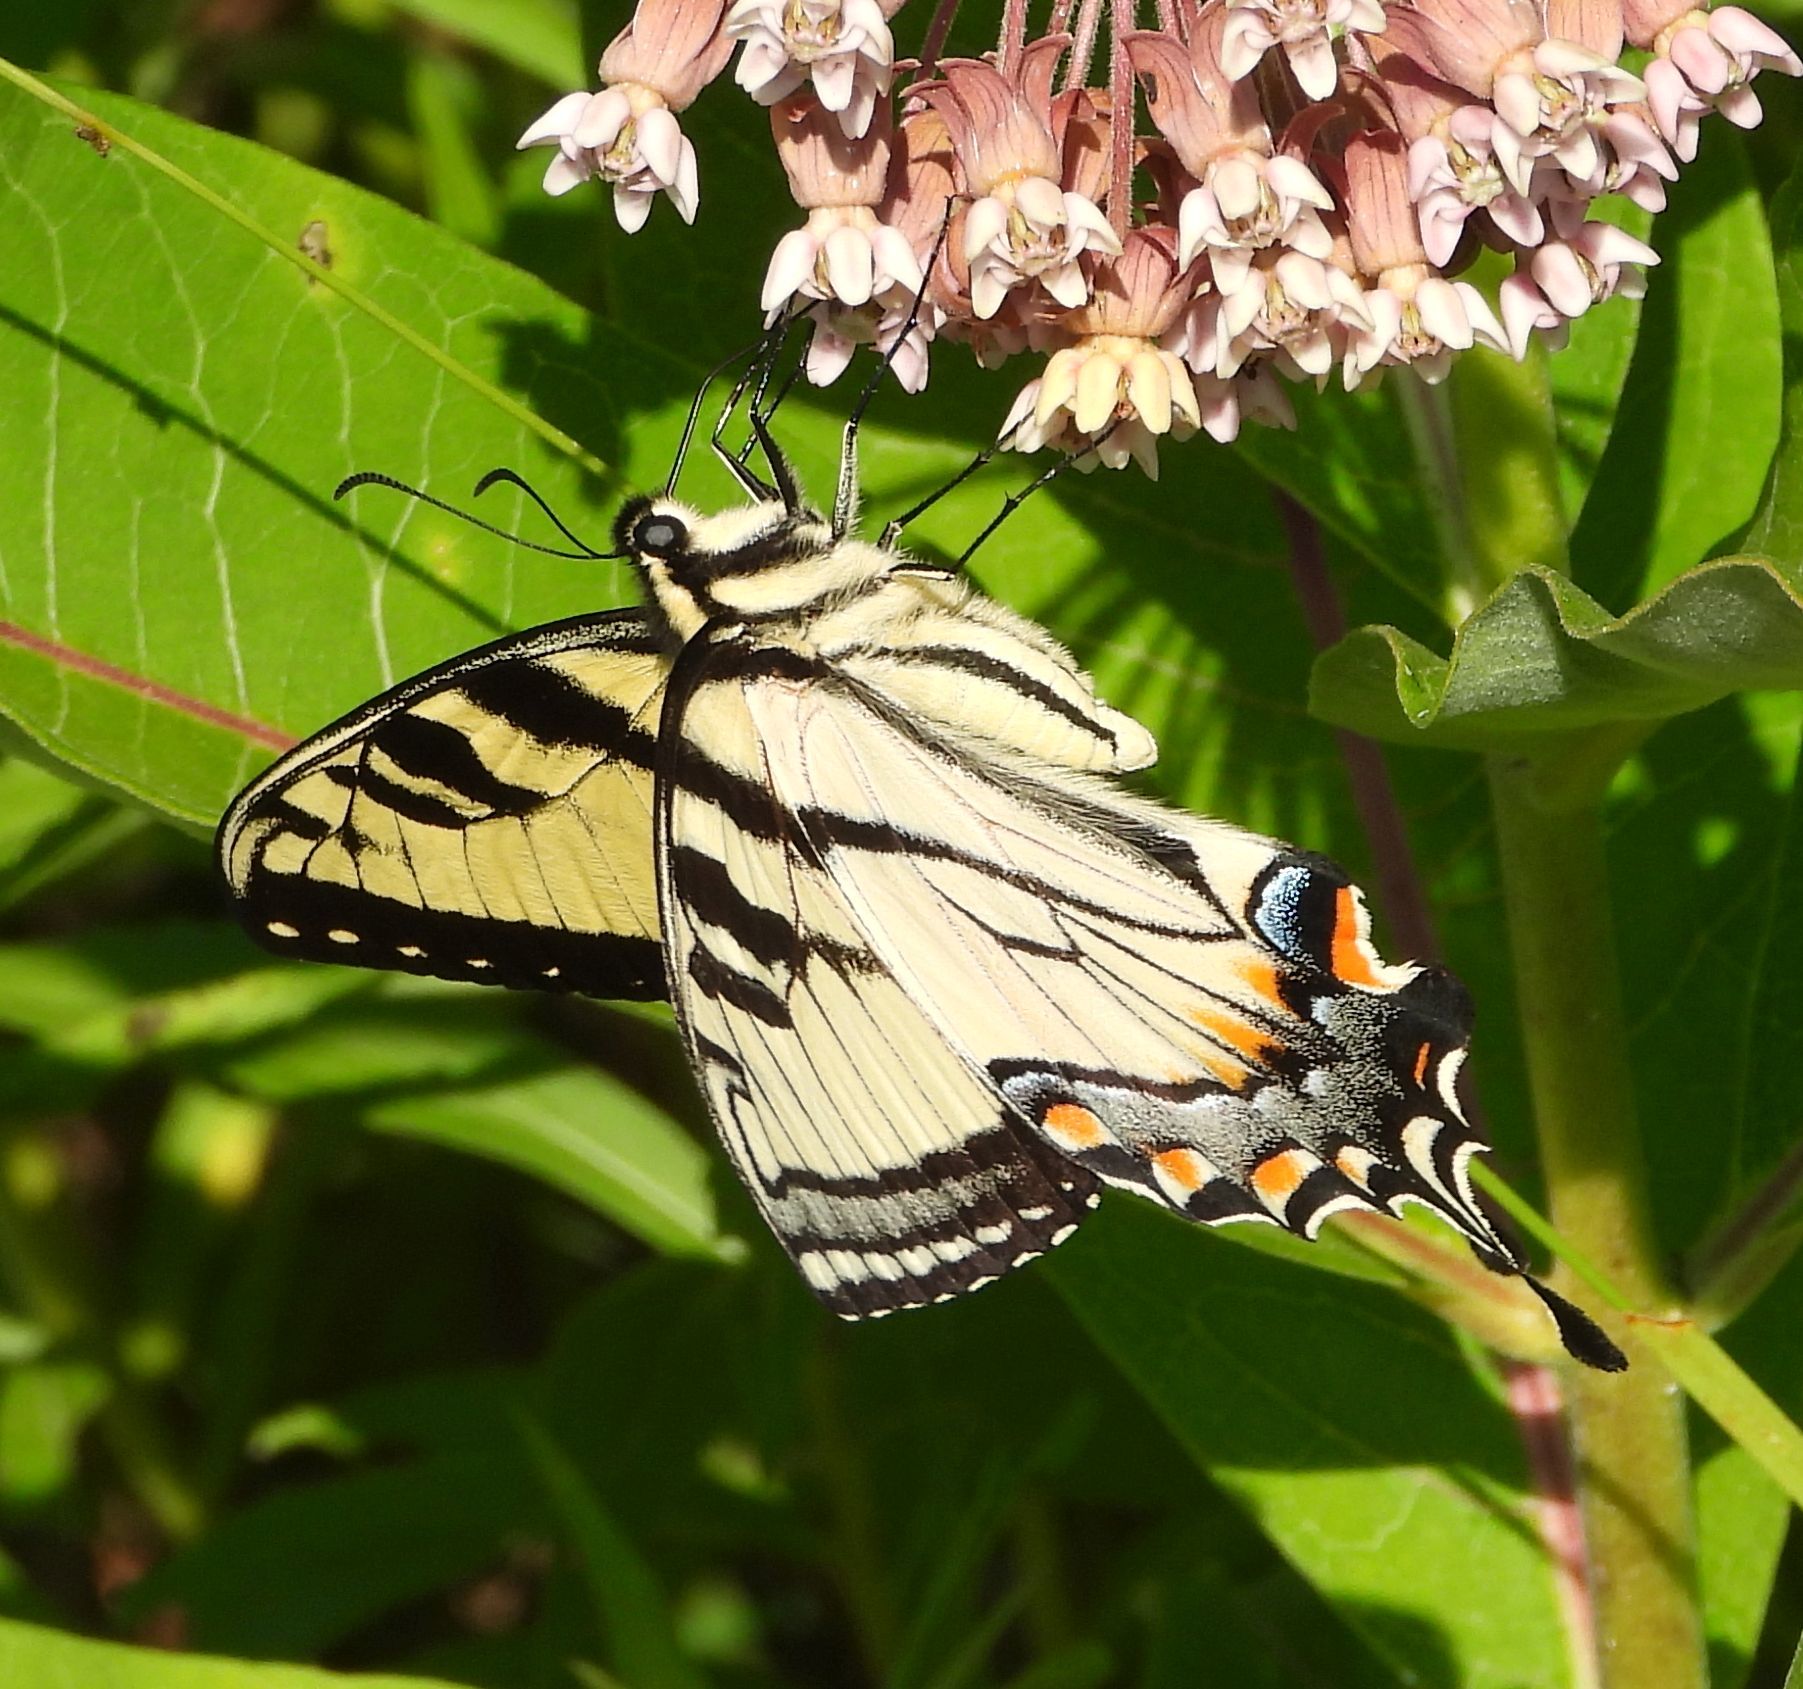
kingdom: Animalia
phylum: Arthropoda
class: Insecta
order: Lepidoptera
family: Papilionidae
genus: Papilio
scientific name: Papilio
